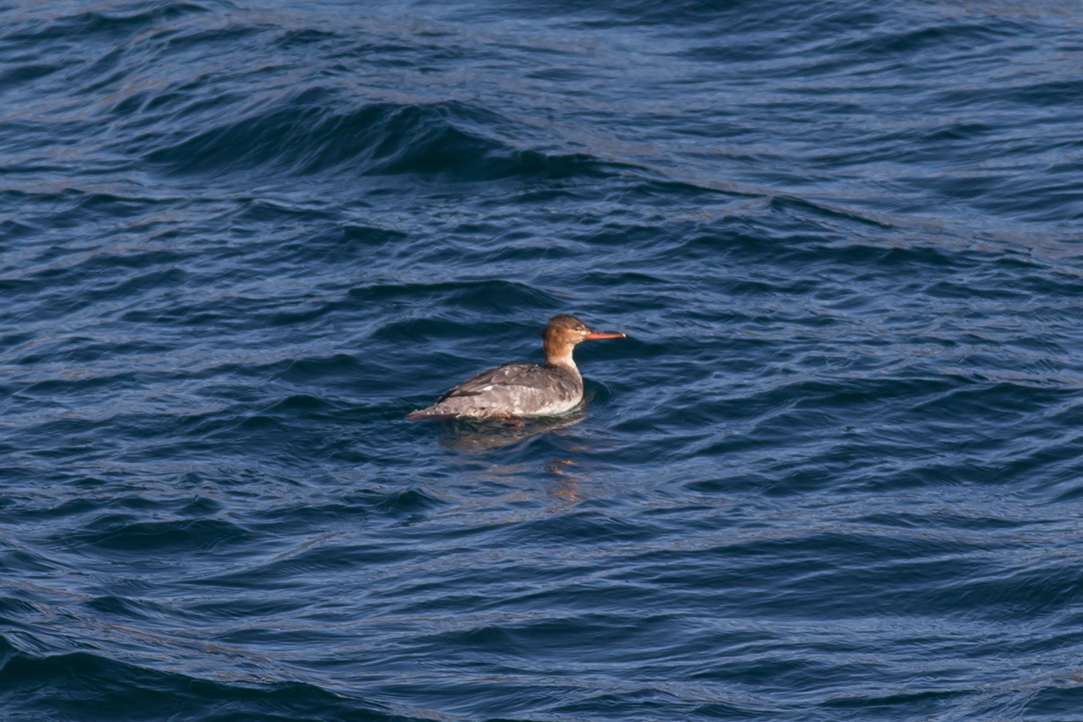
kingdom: Animalia
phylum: Chordata
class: Aves
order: Anseriformes
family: Anatidae
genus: Mergus
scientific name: Mergus serrator
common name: Red-breasted merganser
